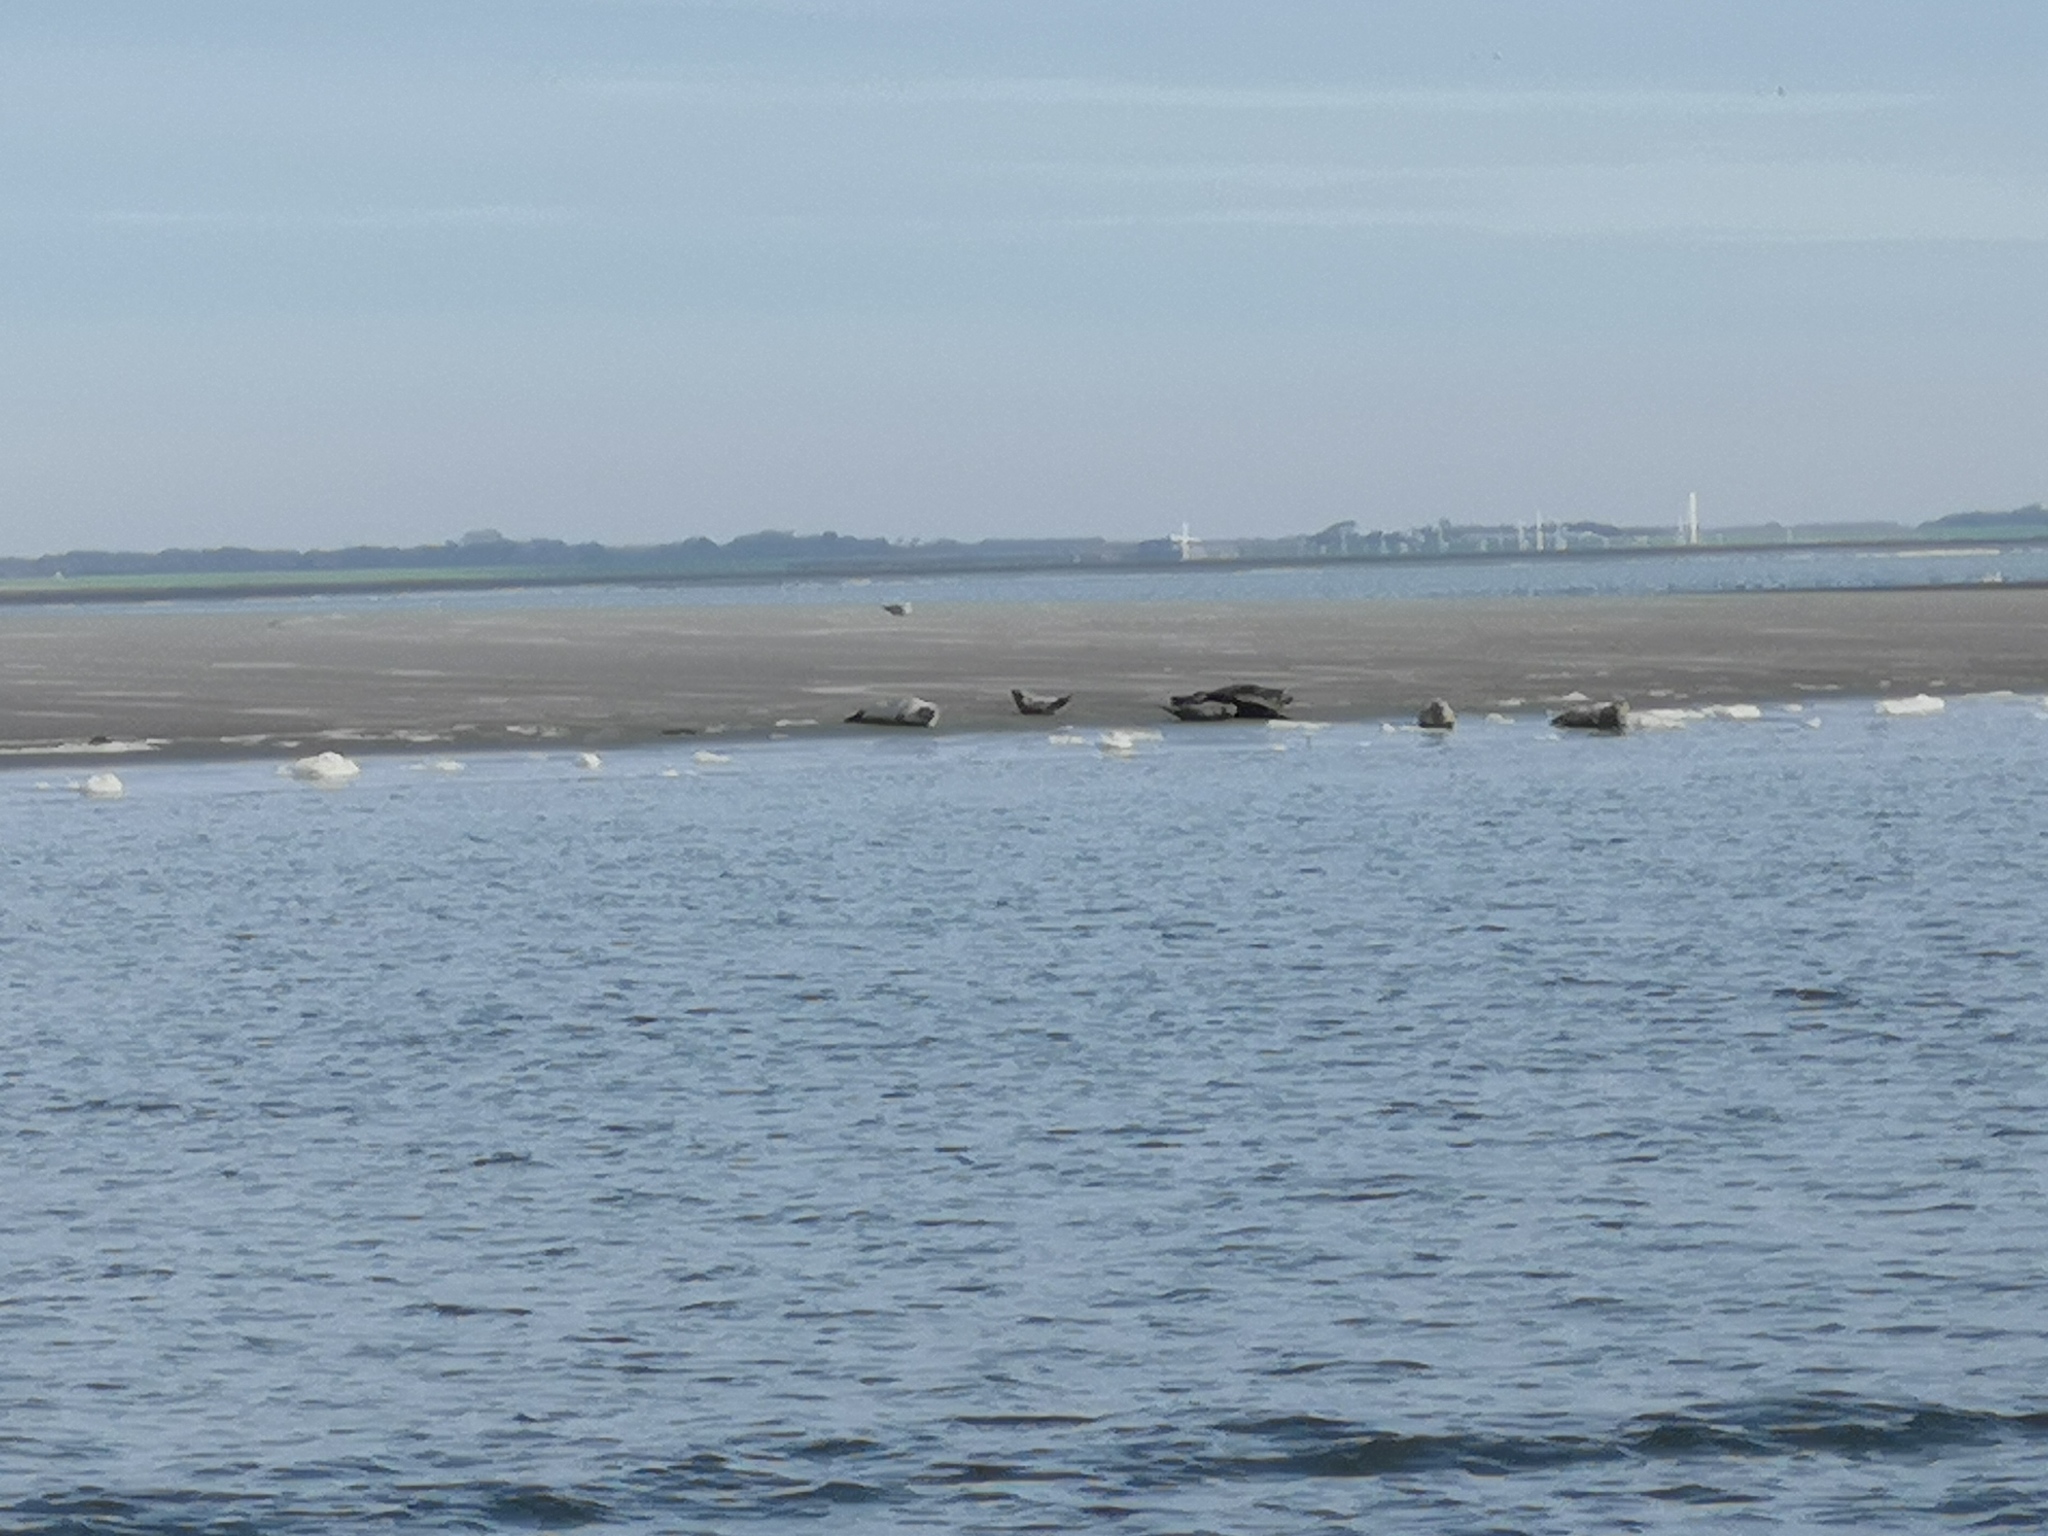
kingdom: Animalia
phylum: Chordata
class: Mammalia
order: Carnivora
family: Phocidae
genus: Phoca
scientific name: Phoca vitulina
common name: Harbor seal
